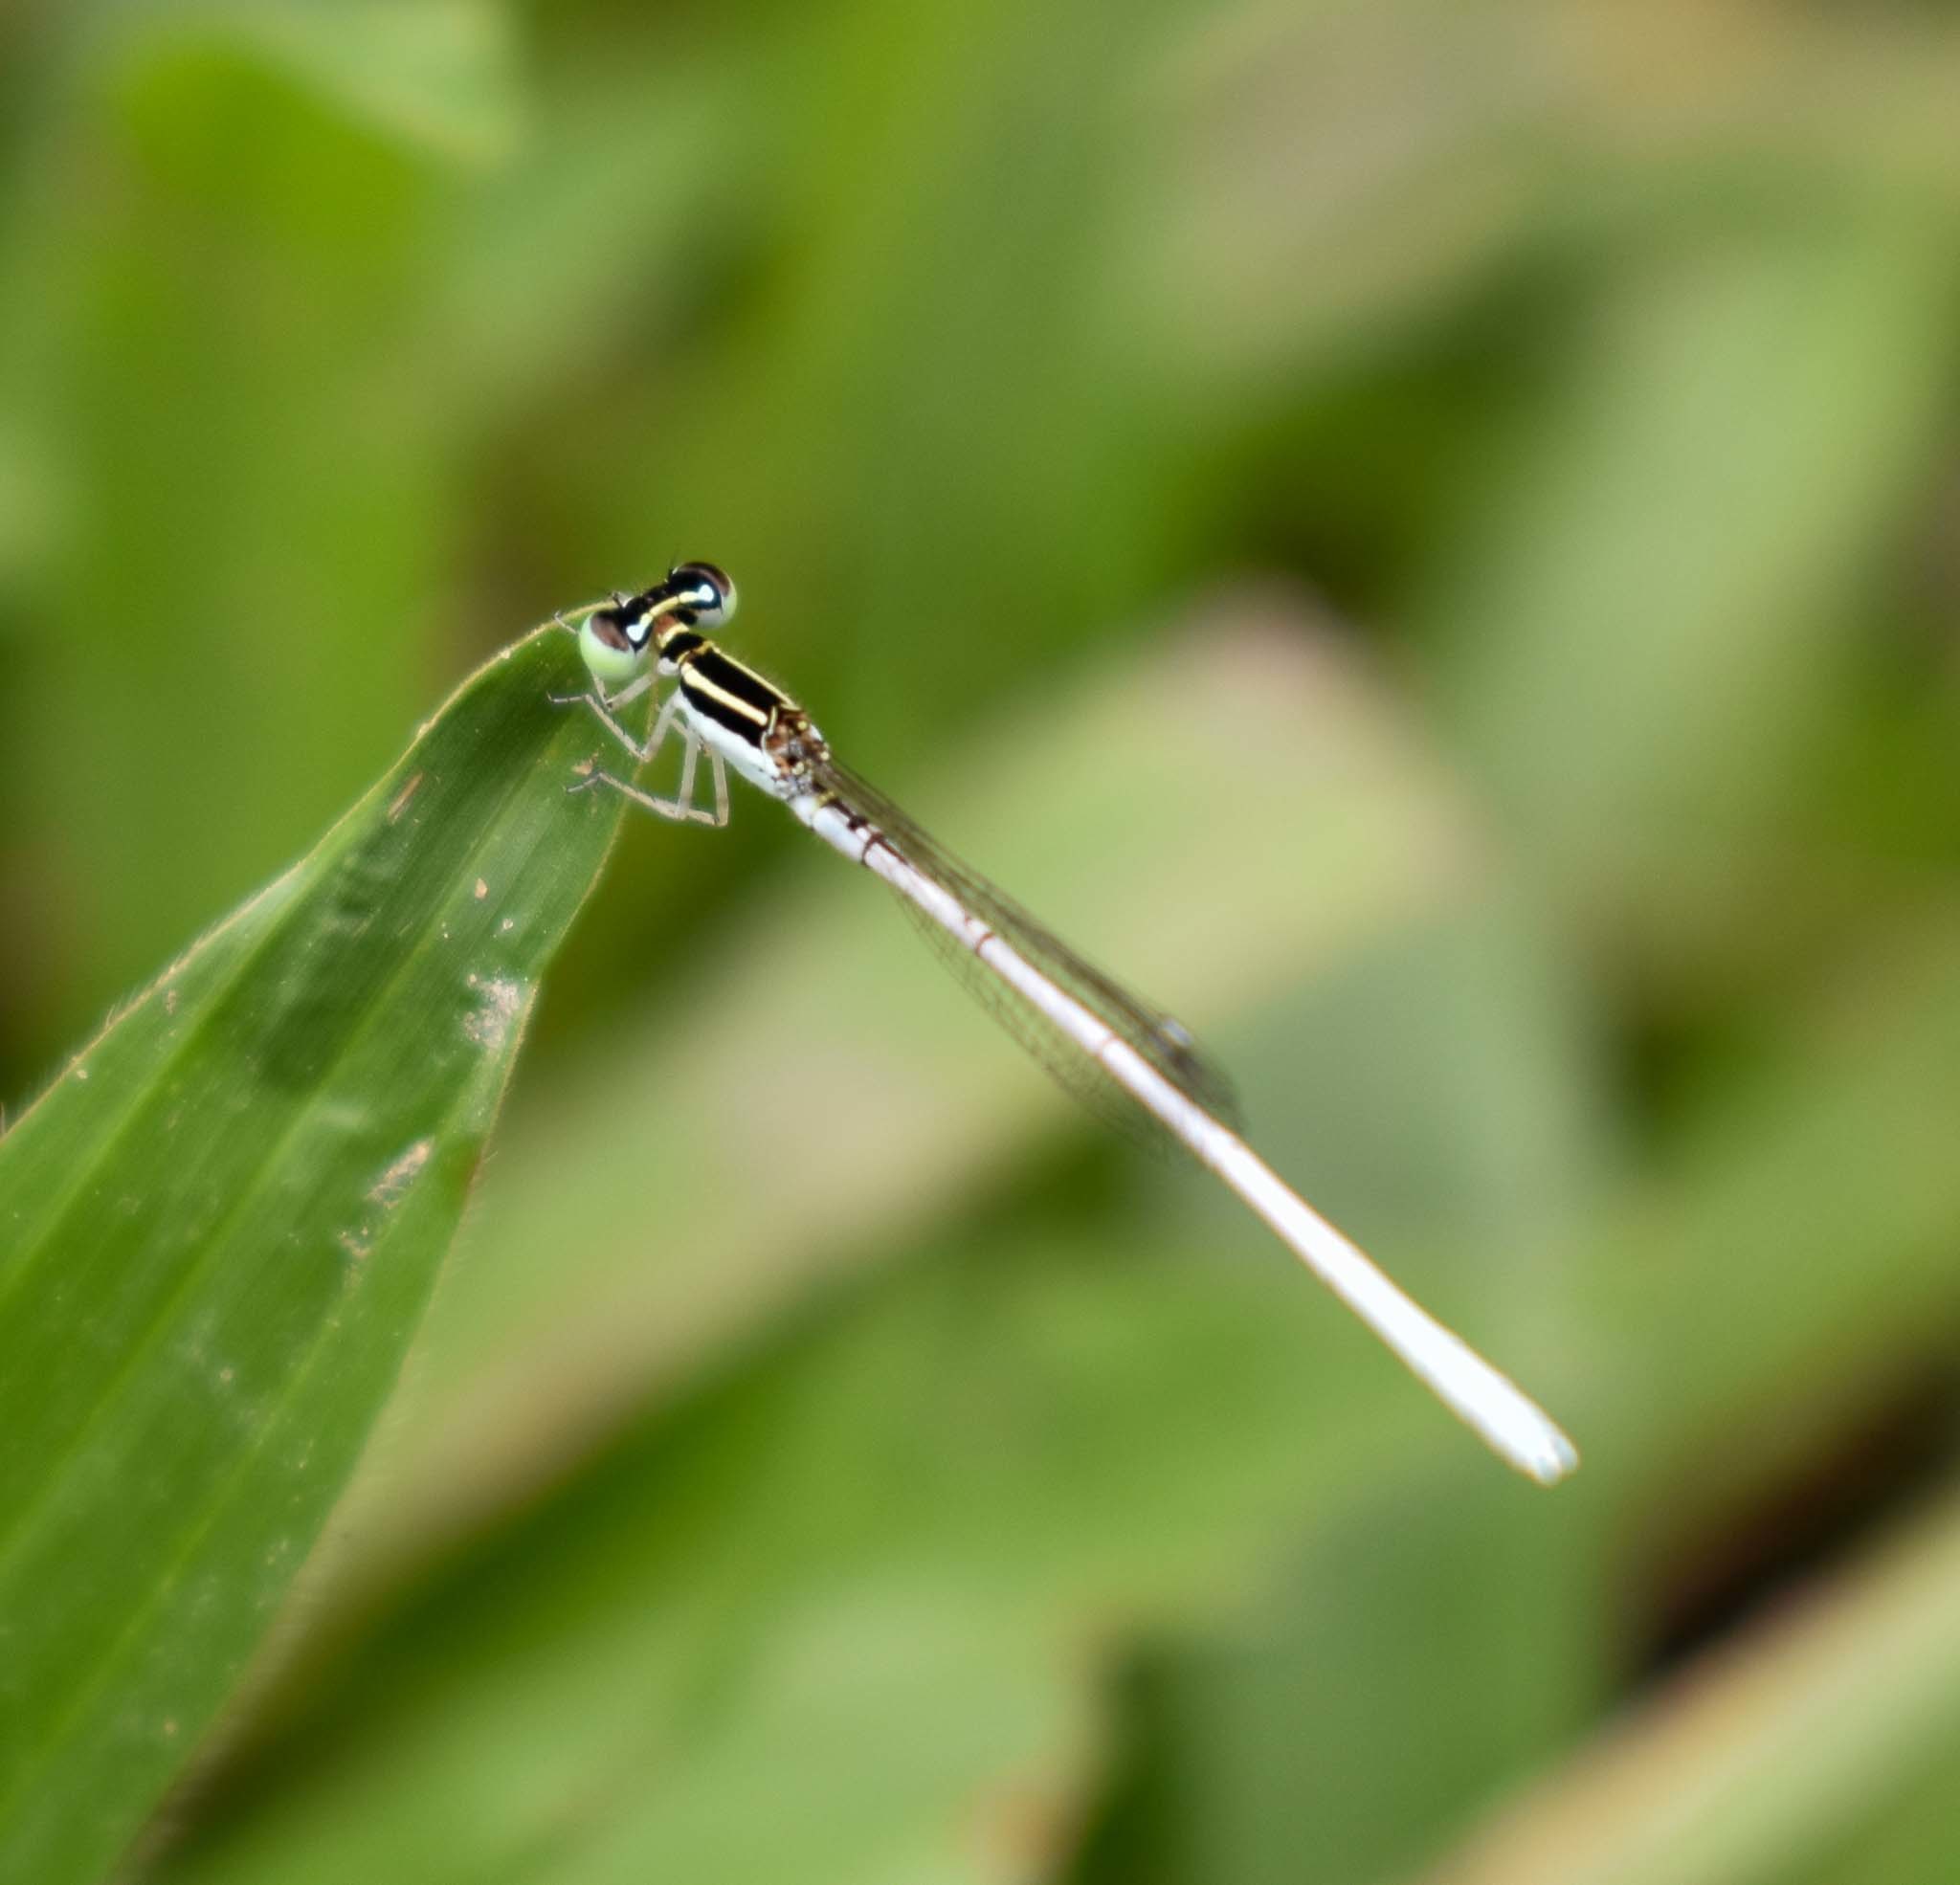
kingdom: Animalia
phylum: Arthropoda
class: Insecta
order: Odonata
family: Coenagrionidae
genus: Agriocnemis
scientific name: Agriocnemis lacteola
